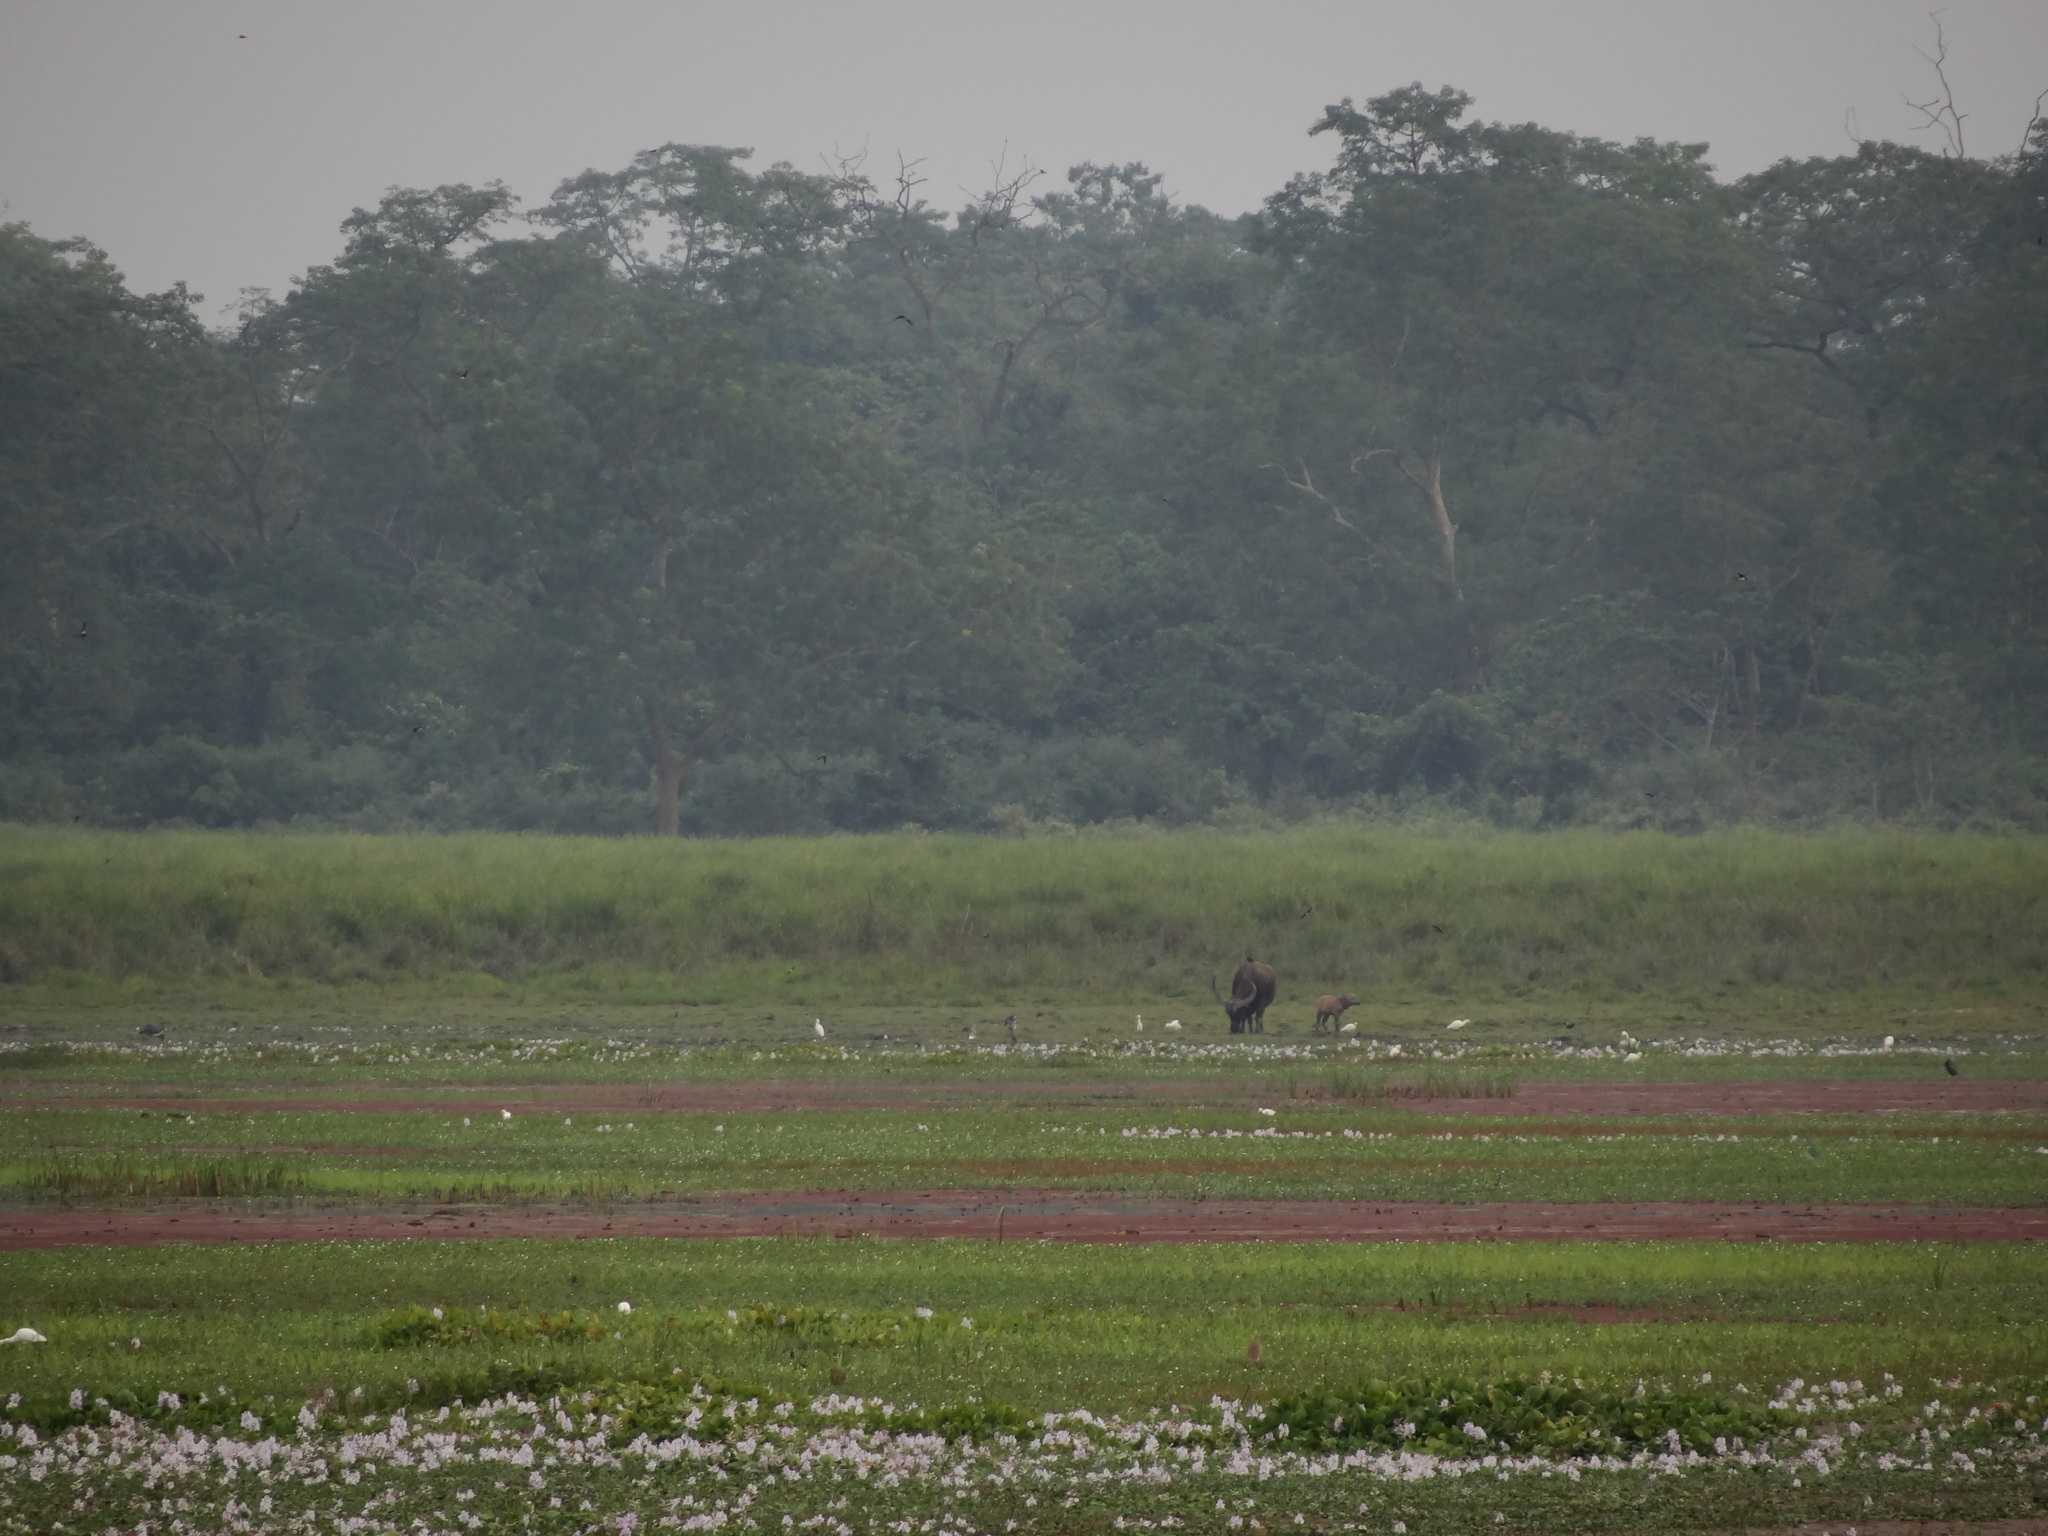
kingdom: Animalia
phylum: Chordata
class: Mammalia
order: Artiodactyla
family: Bovidae
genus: Bubalus
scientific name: Bubalus bubalis
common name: Water buffalo
